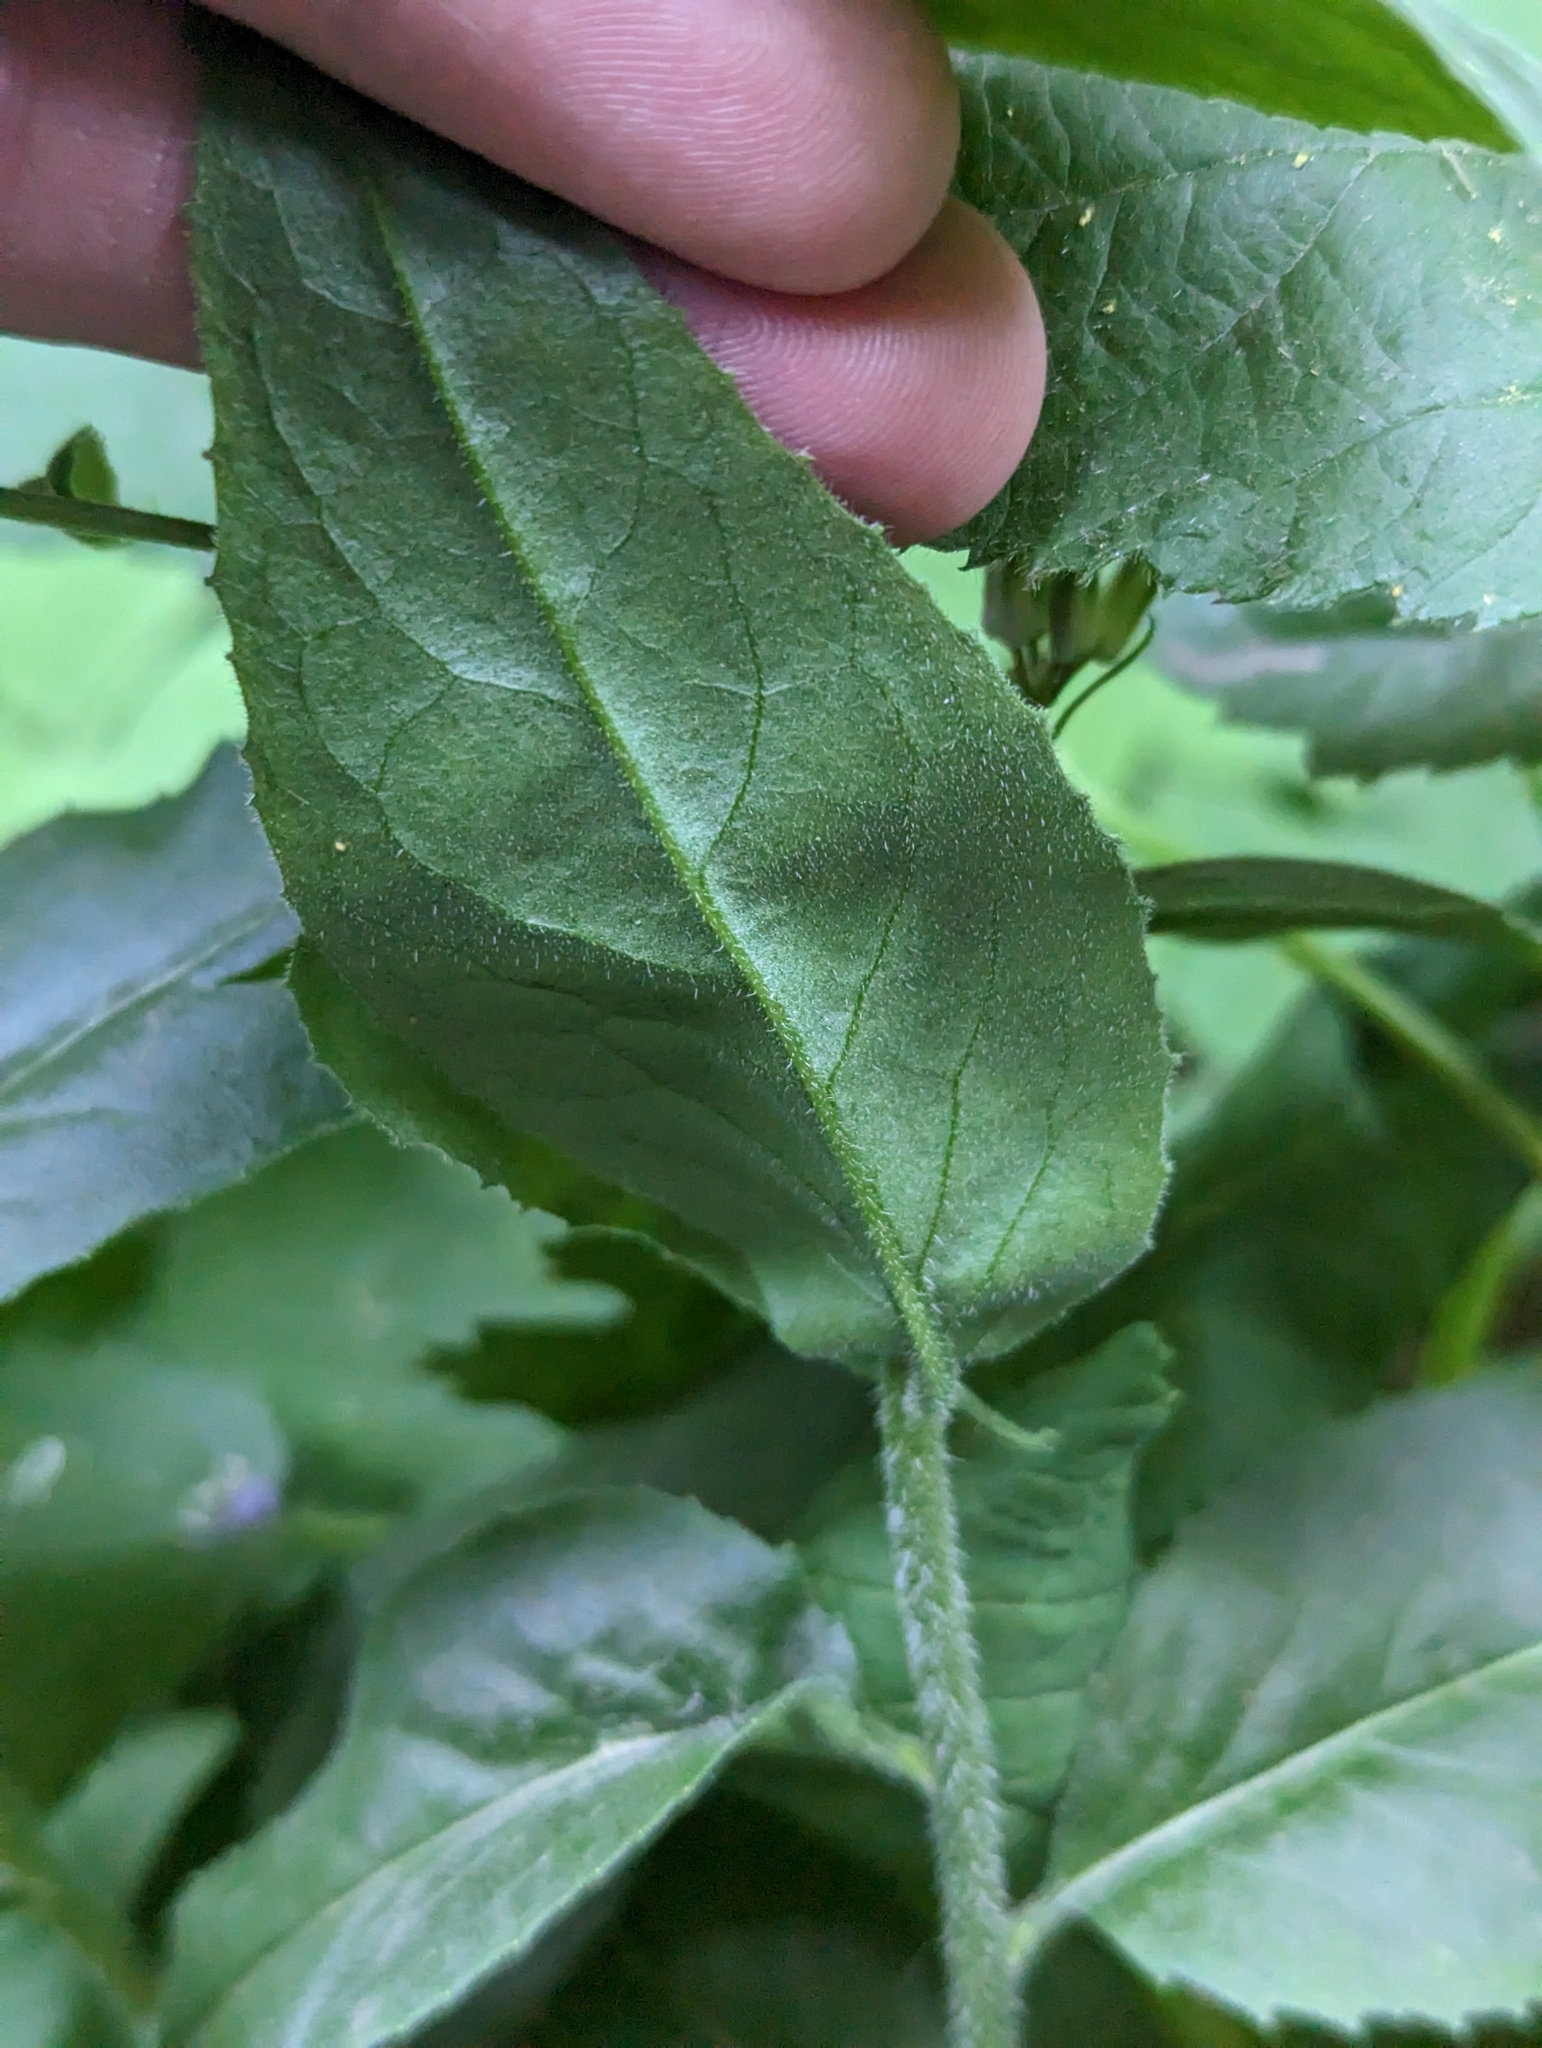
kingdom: Plantae
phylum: Tracheophyta
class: Magnoliopsida
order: Brassicales
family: Brassicaceae
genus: Hesperis
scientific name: Hesperis matronalis
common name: Dame's-violet
